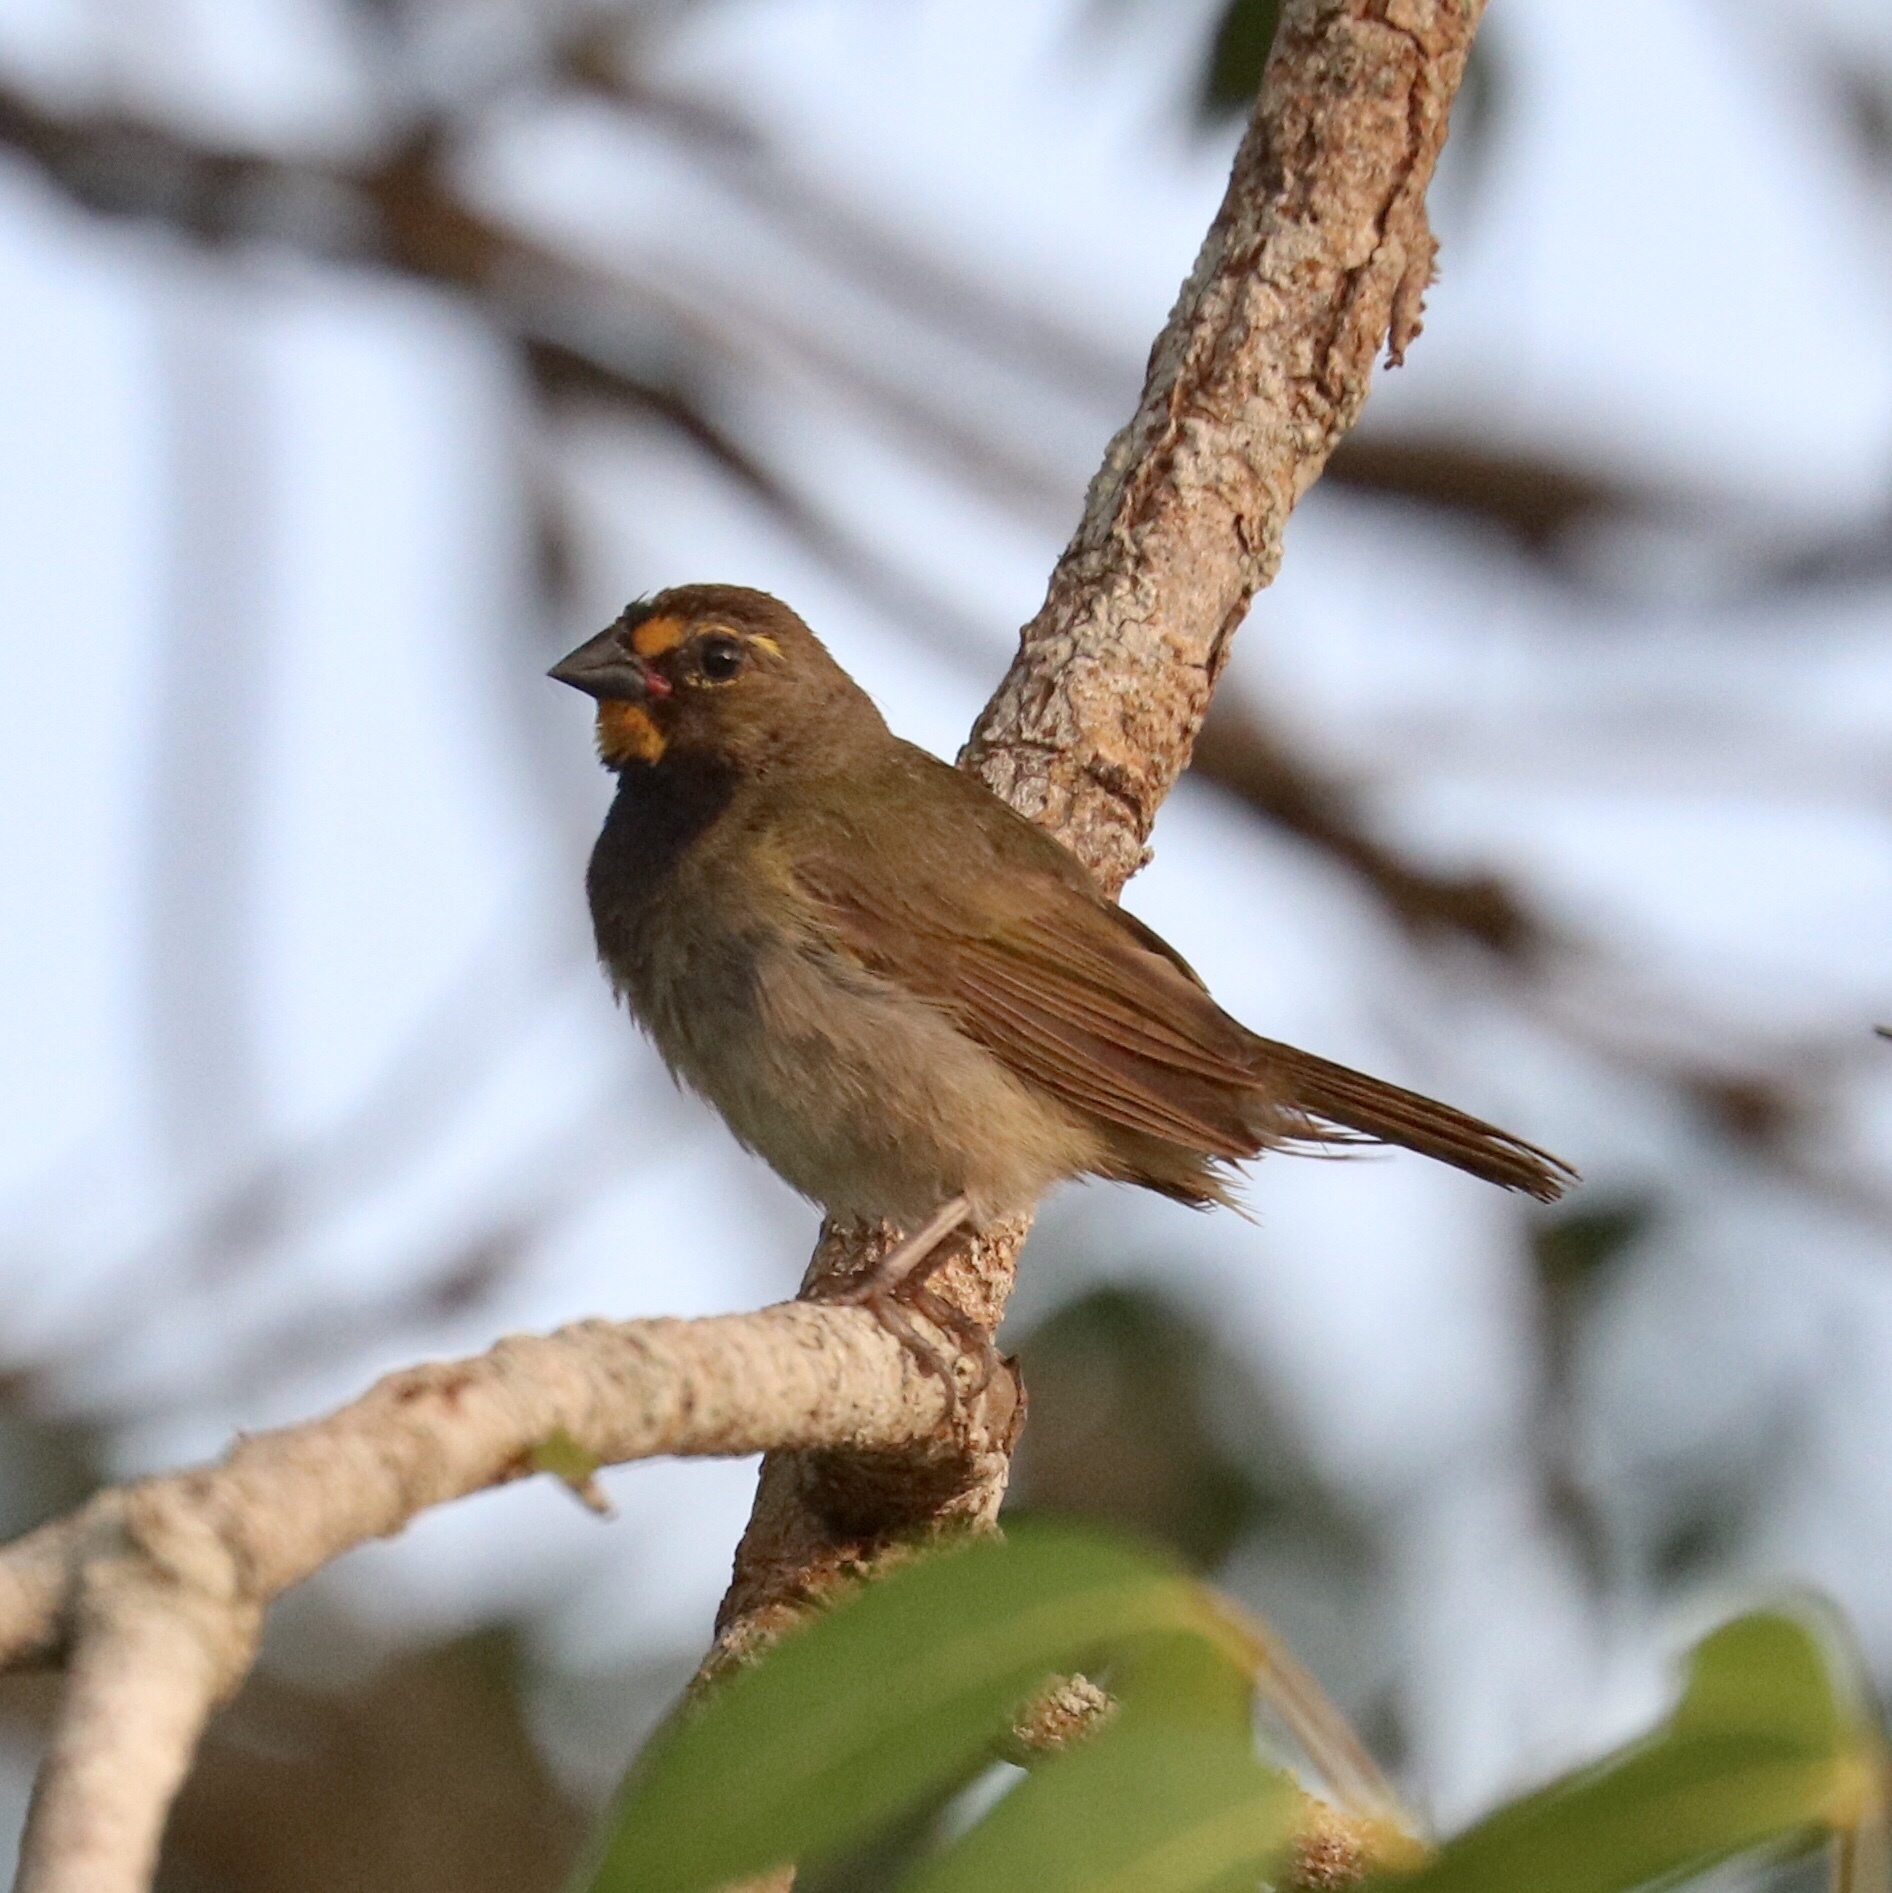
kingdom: Animalia
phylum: Chordata
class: Aves
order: Passeriformes
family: Thraupidae
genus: Tiaris
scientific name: Tiaris olivaceus
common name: Yellow-faced grassquit
